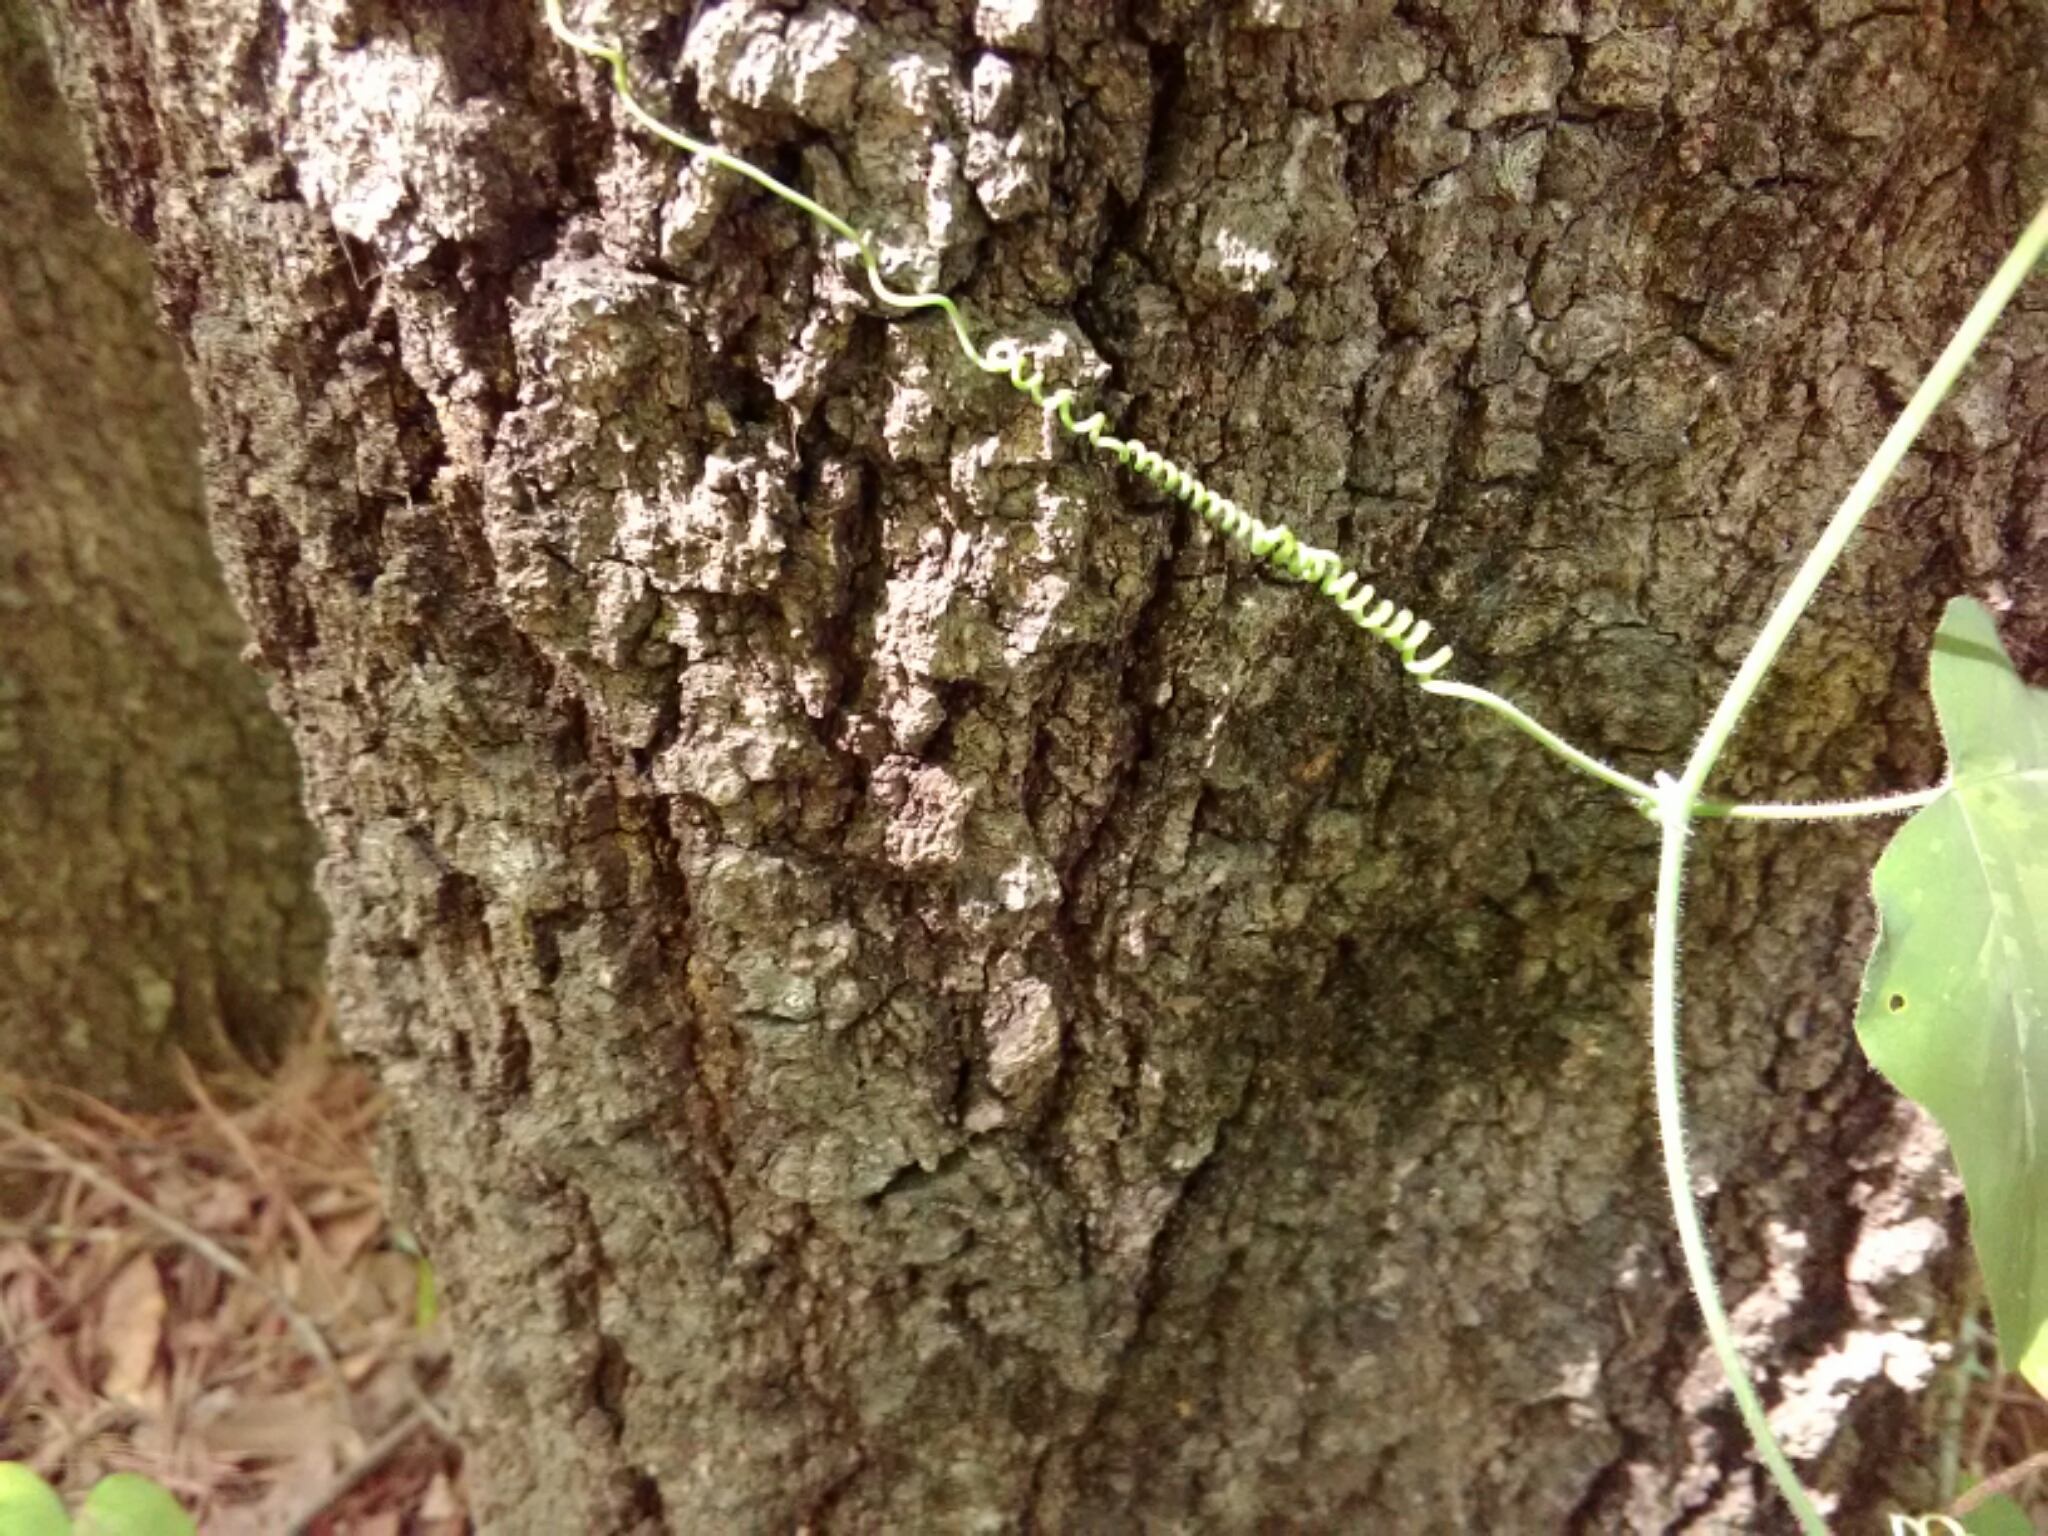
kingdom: Plantae
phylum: Tracheophyta
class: Magnoliopsida
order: Malpighiales
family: Passifloraceae
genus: Passiflora
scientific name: Passiflora lutea
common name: Yellow passionflower
